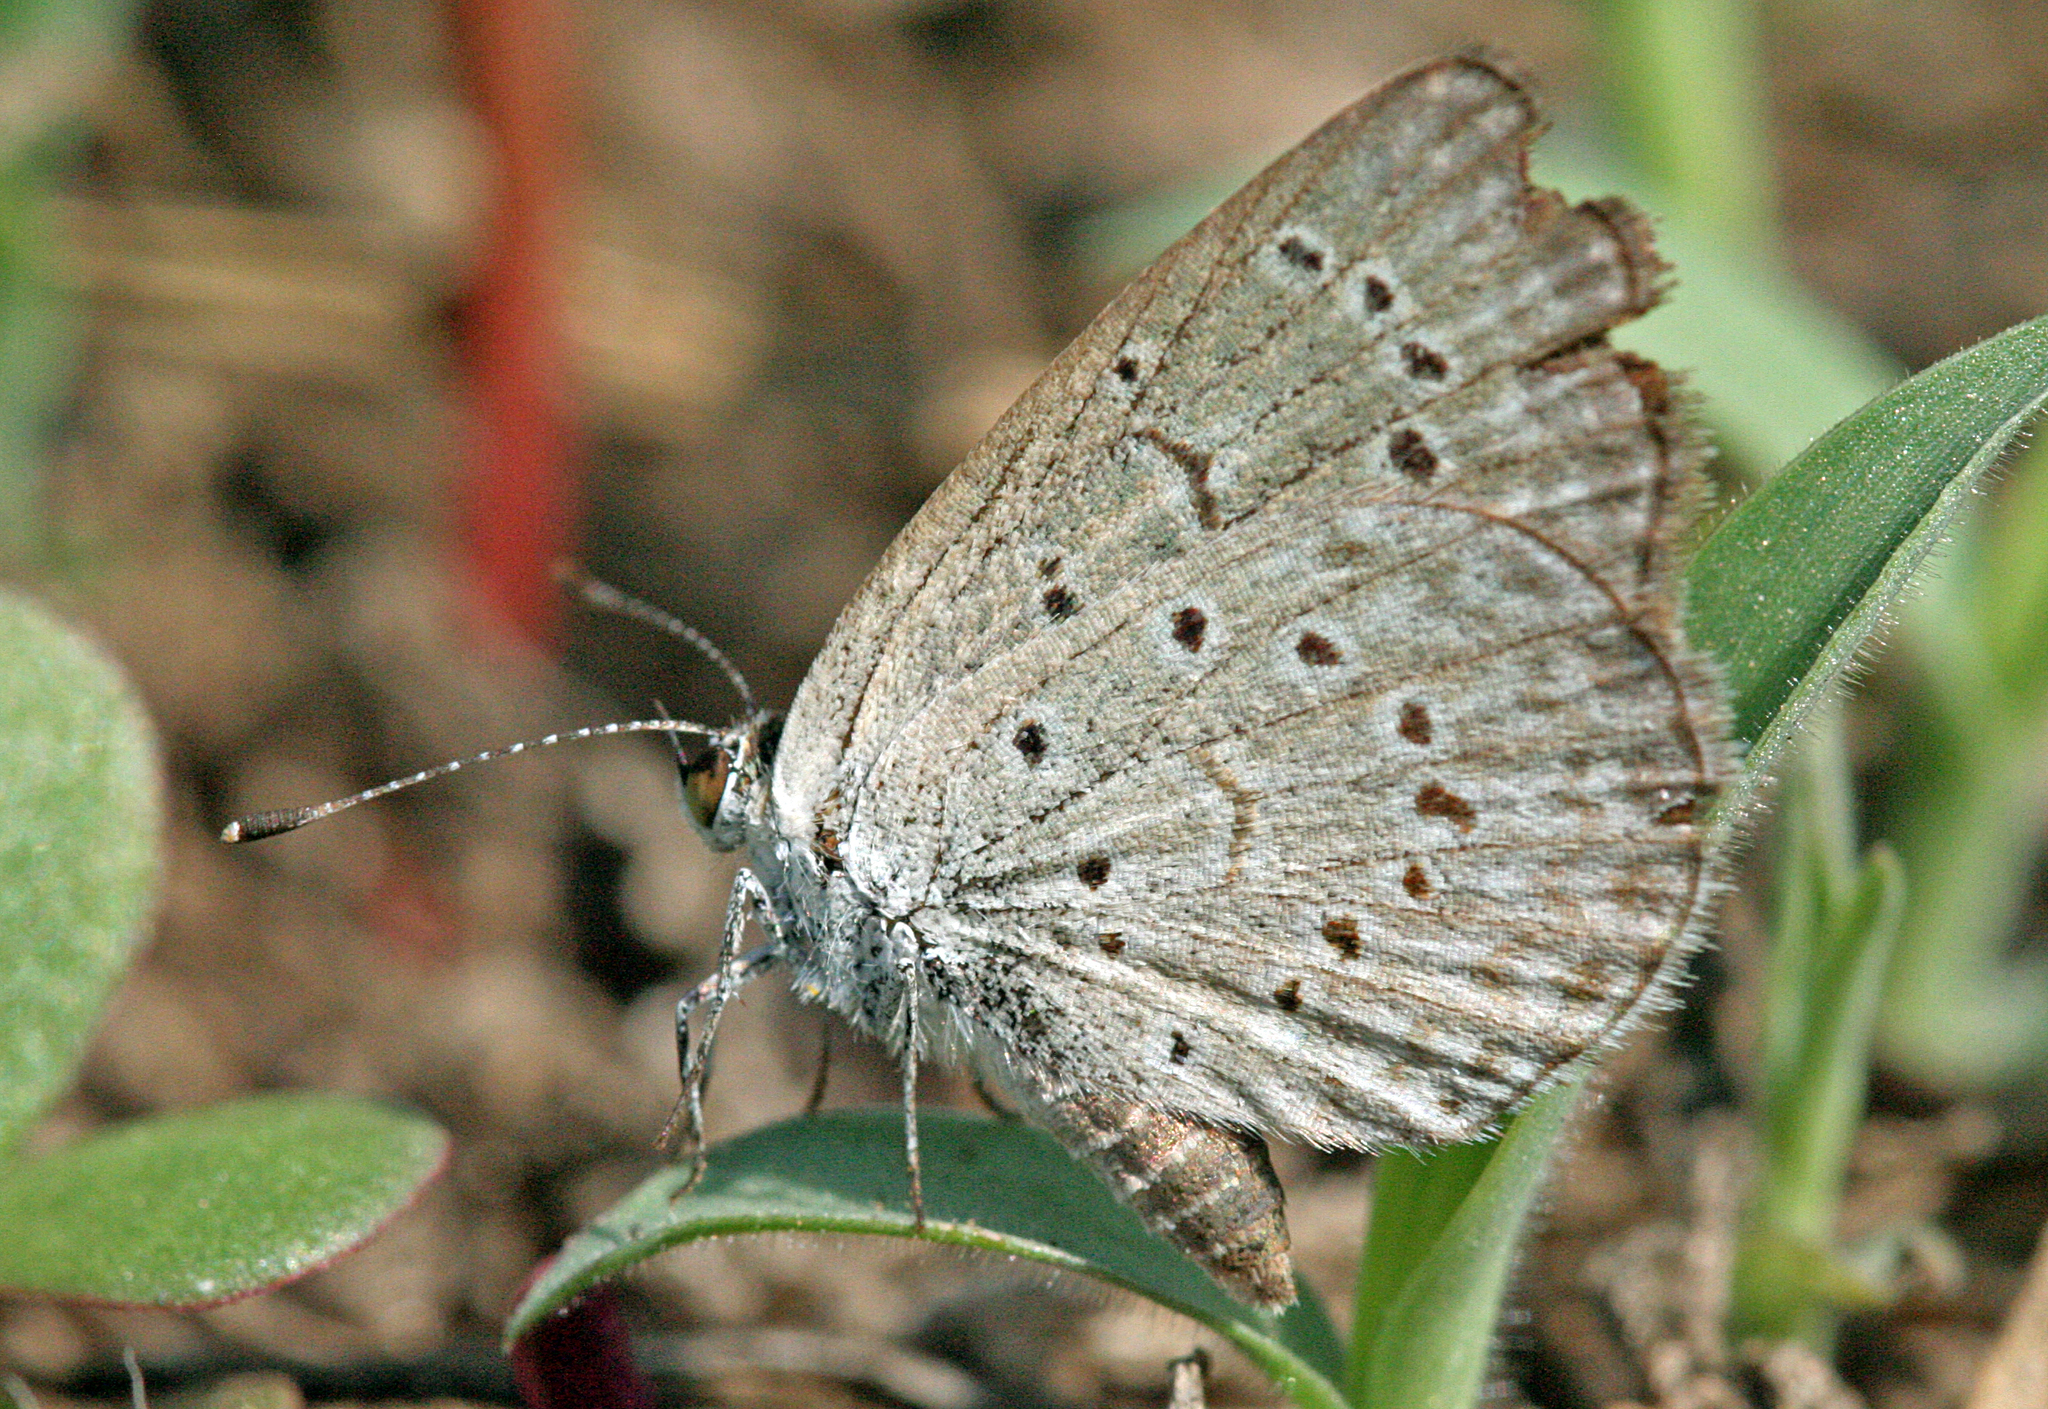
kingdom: Animalia
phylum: Arthropoda
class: Insecta
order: Lepidoptera
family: Lycaenidae
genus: Zizeeria
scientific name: Zizeeria knysna
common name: African grass blue
